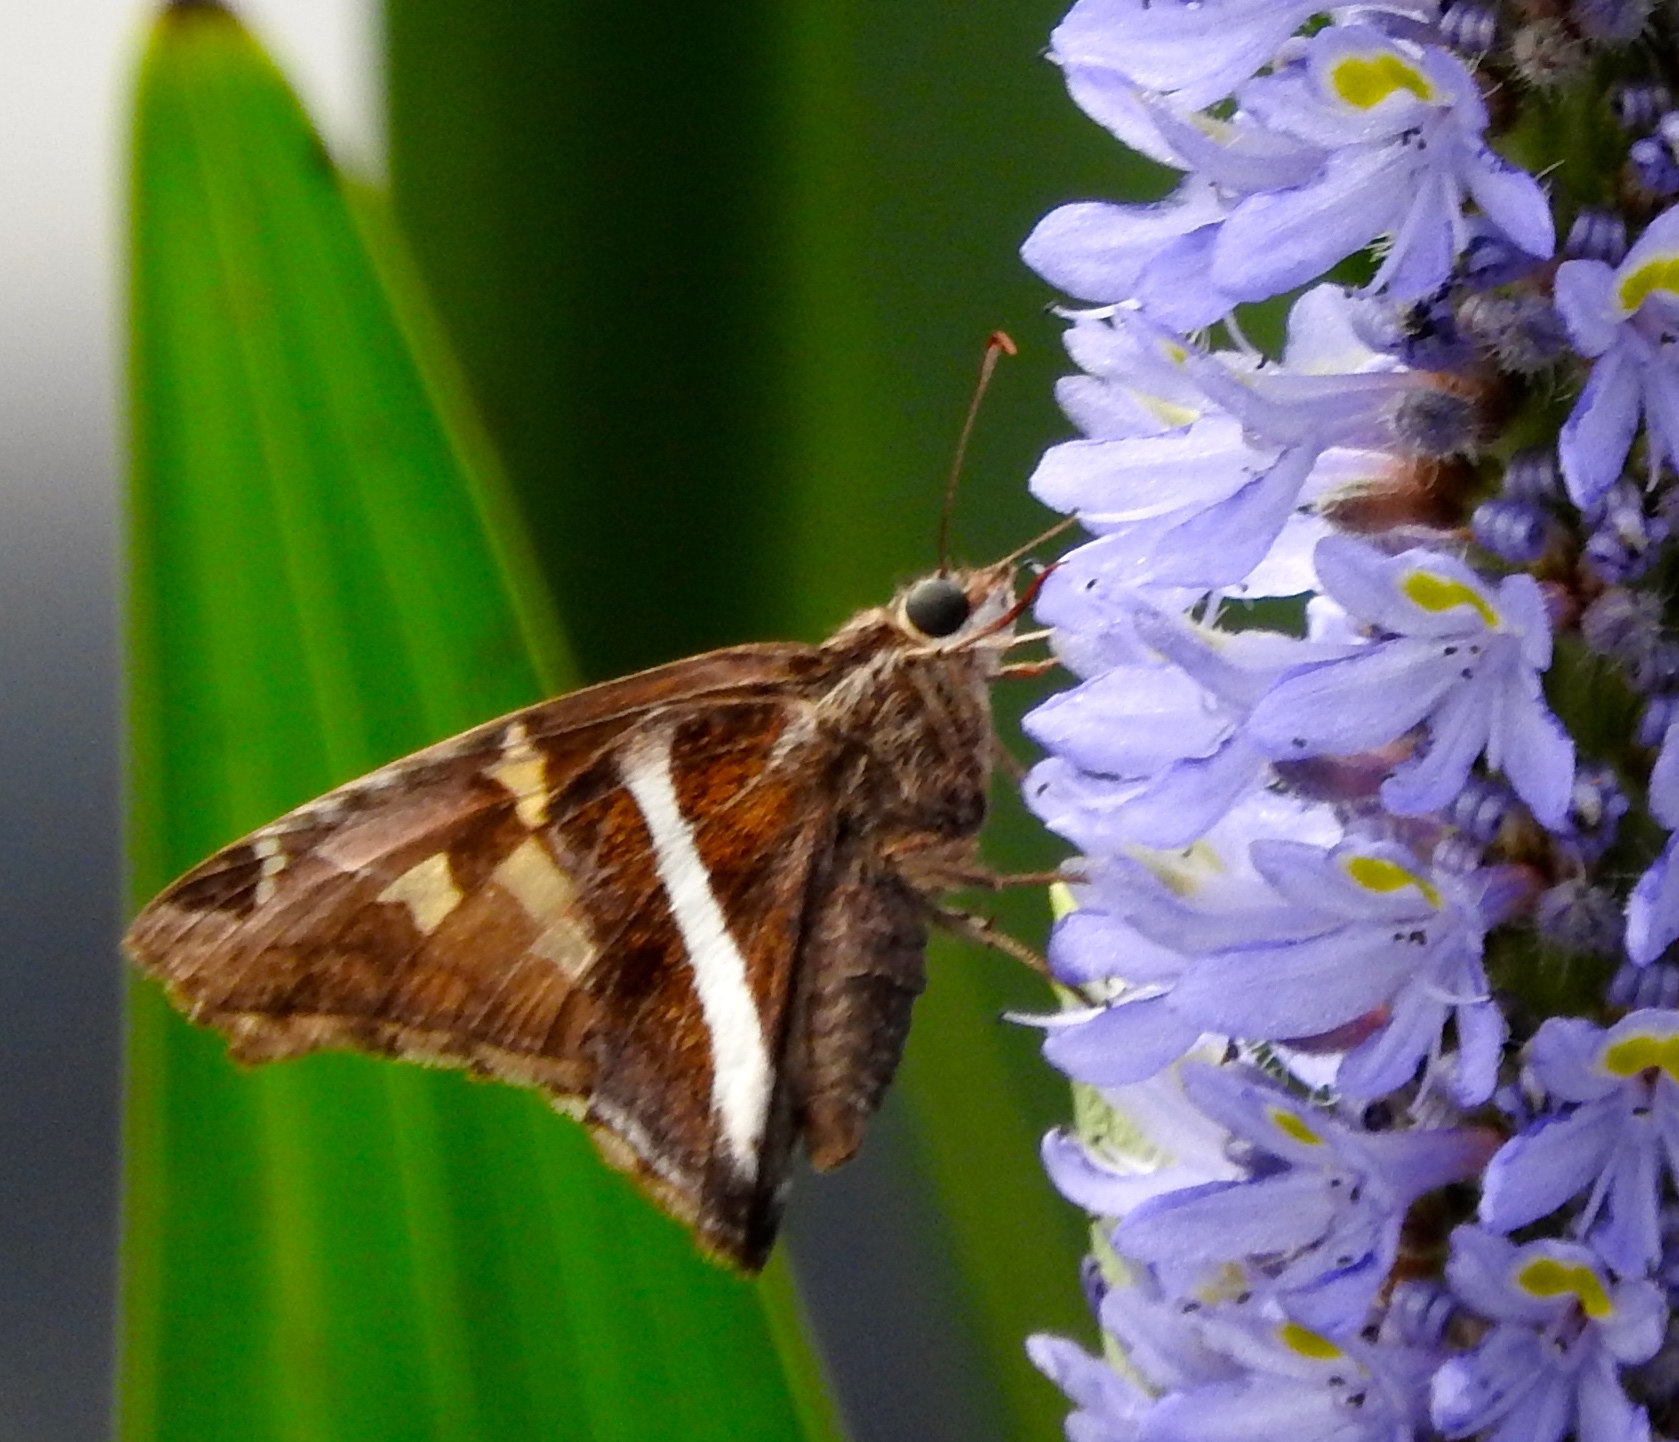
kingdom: Animalia
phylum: Arthropoda
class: Insecta
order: Lepidoptera
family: Hesperiidae
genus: Chioides
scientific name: Chioides catillus
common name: Silverbanded skipper
